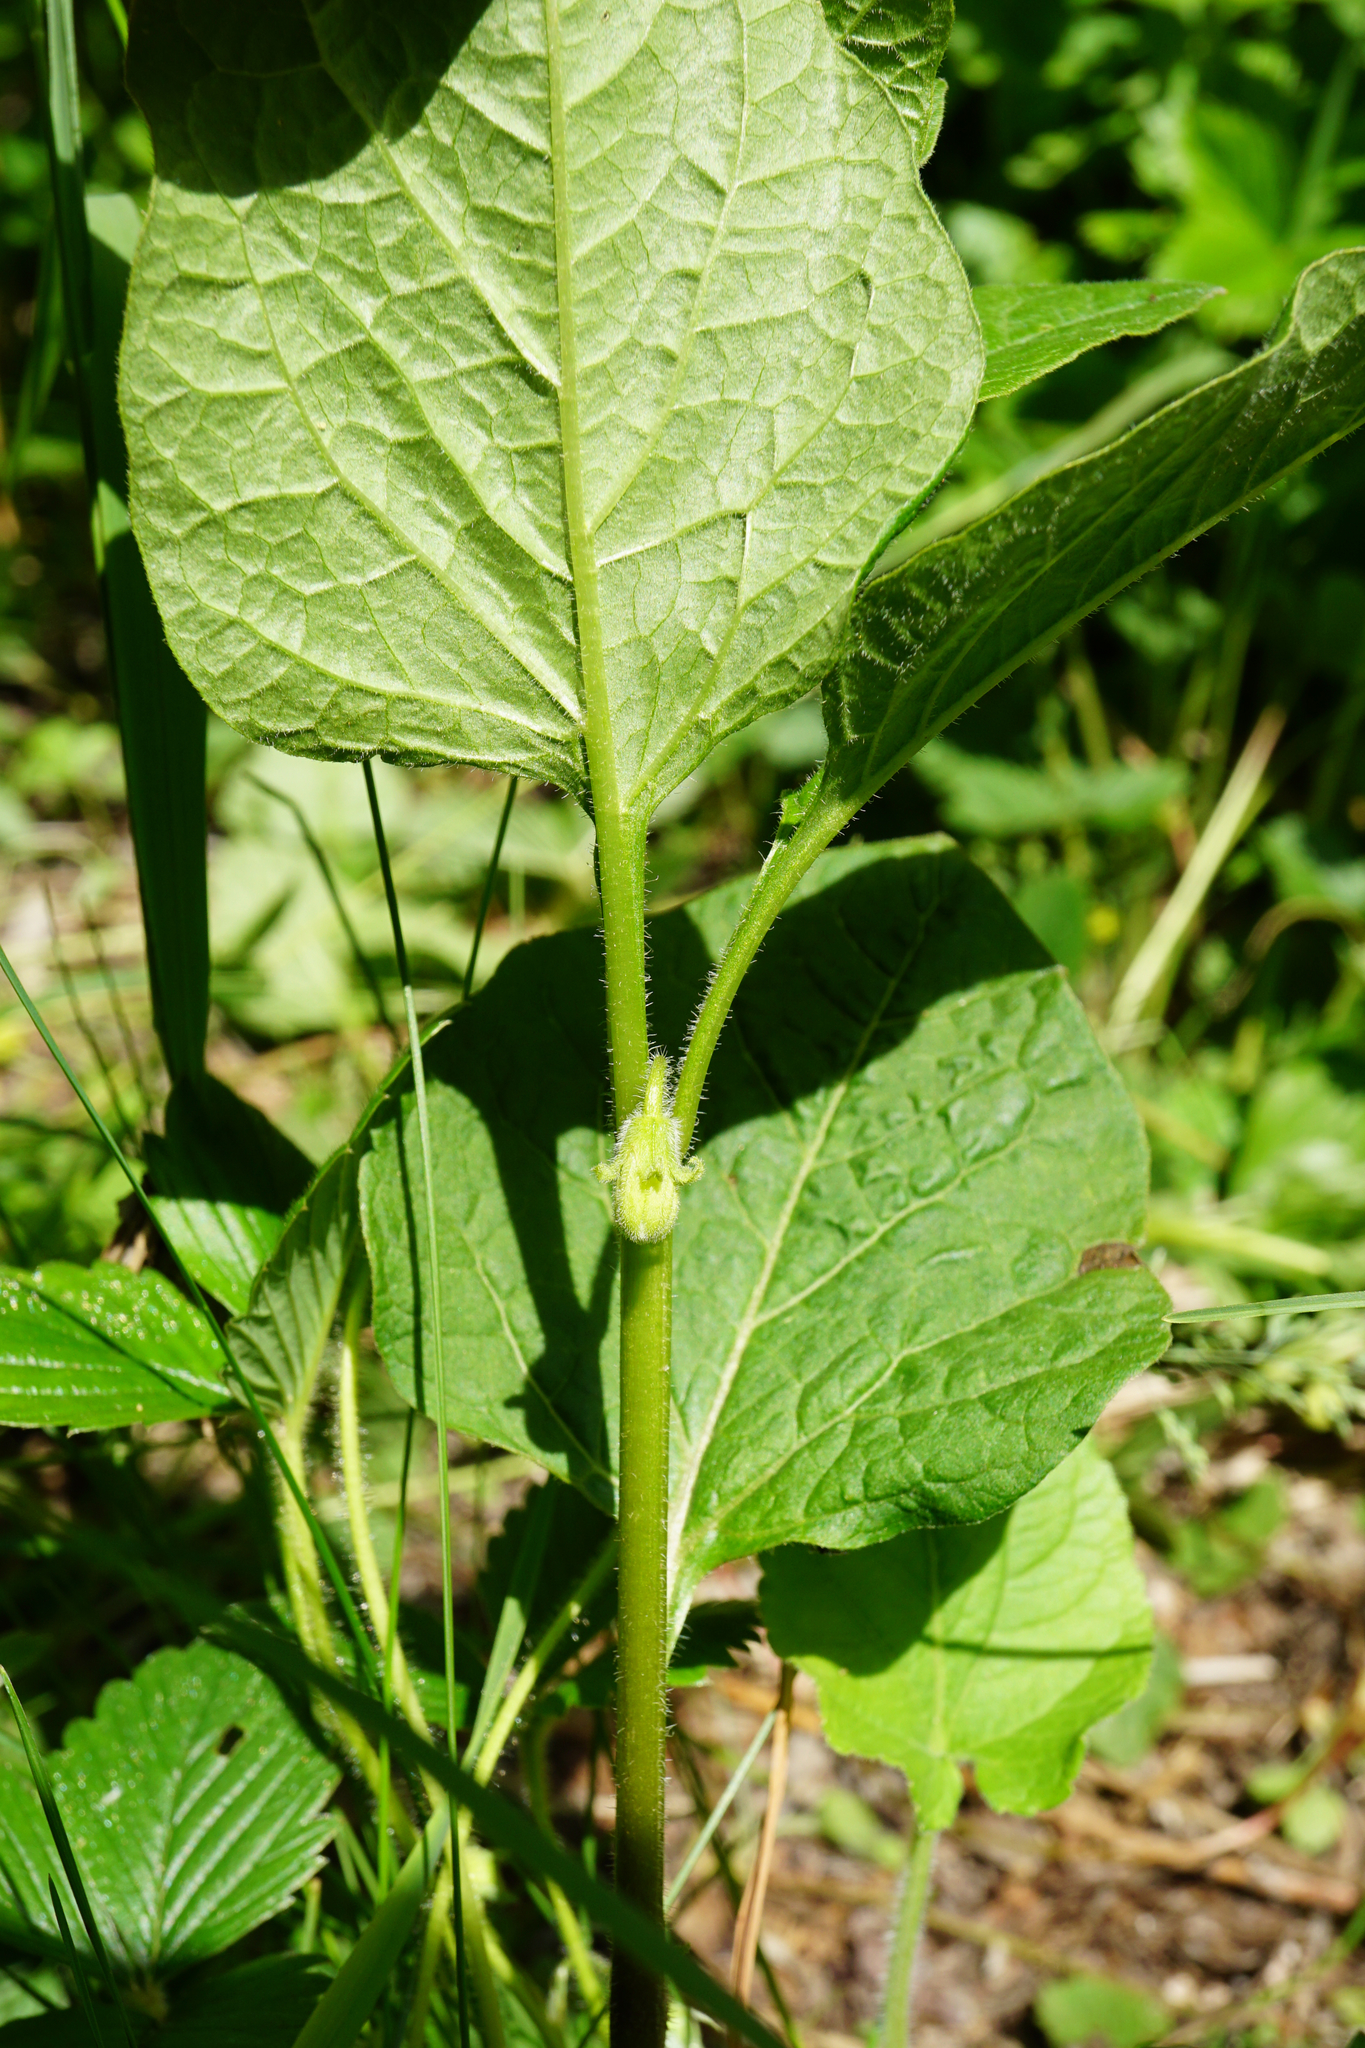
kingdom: Plantae
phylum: Tracheophyta
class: Magnoliopsida
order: Solanales
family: Solanaceae
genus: Alkekengi
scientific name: Alkekengi officinarum
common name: Japanese-lantern
